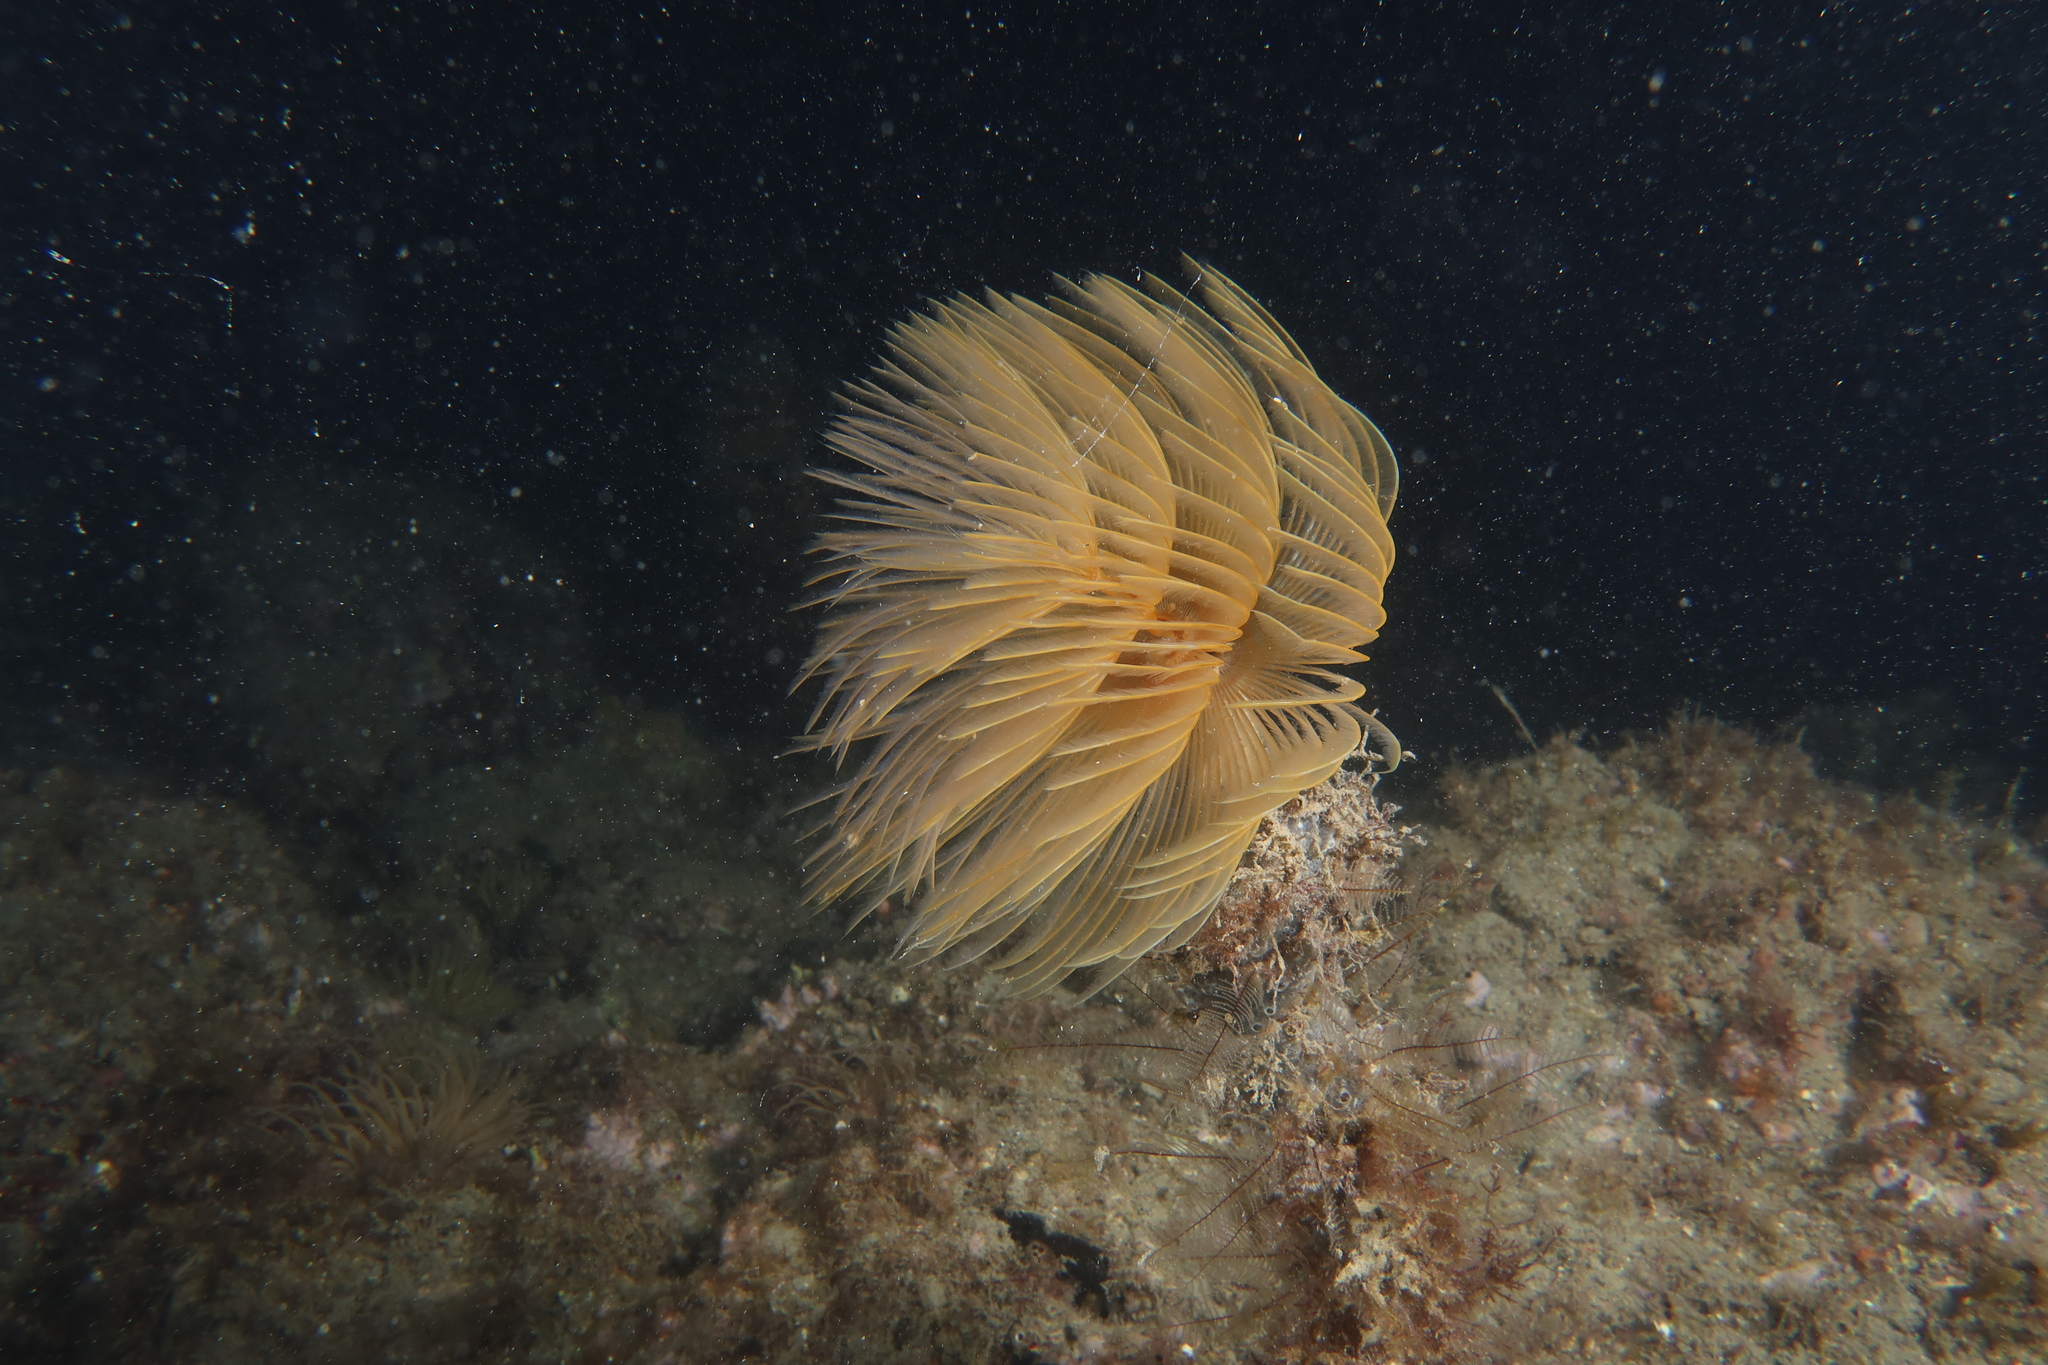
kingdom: Animalia
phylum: Annelida
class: Polychaeta
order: Sabellida
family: Sabellidae
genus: Sabella
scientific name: Sabella spallanzanii
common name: Feather duster worm
